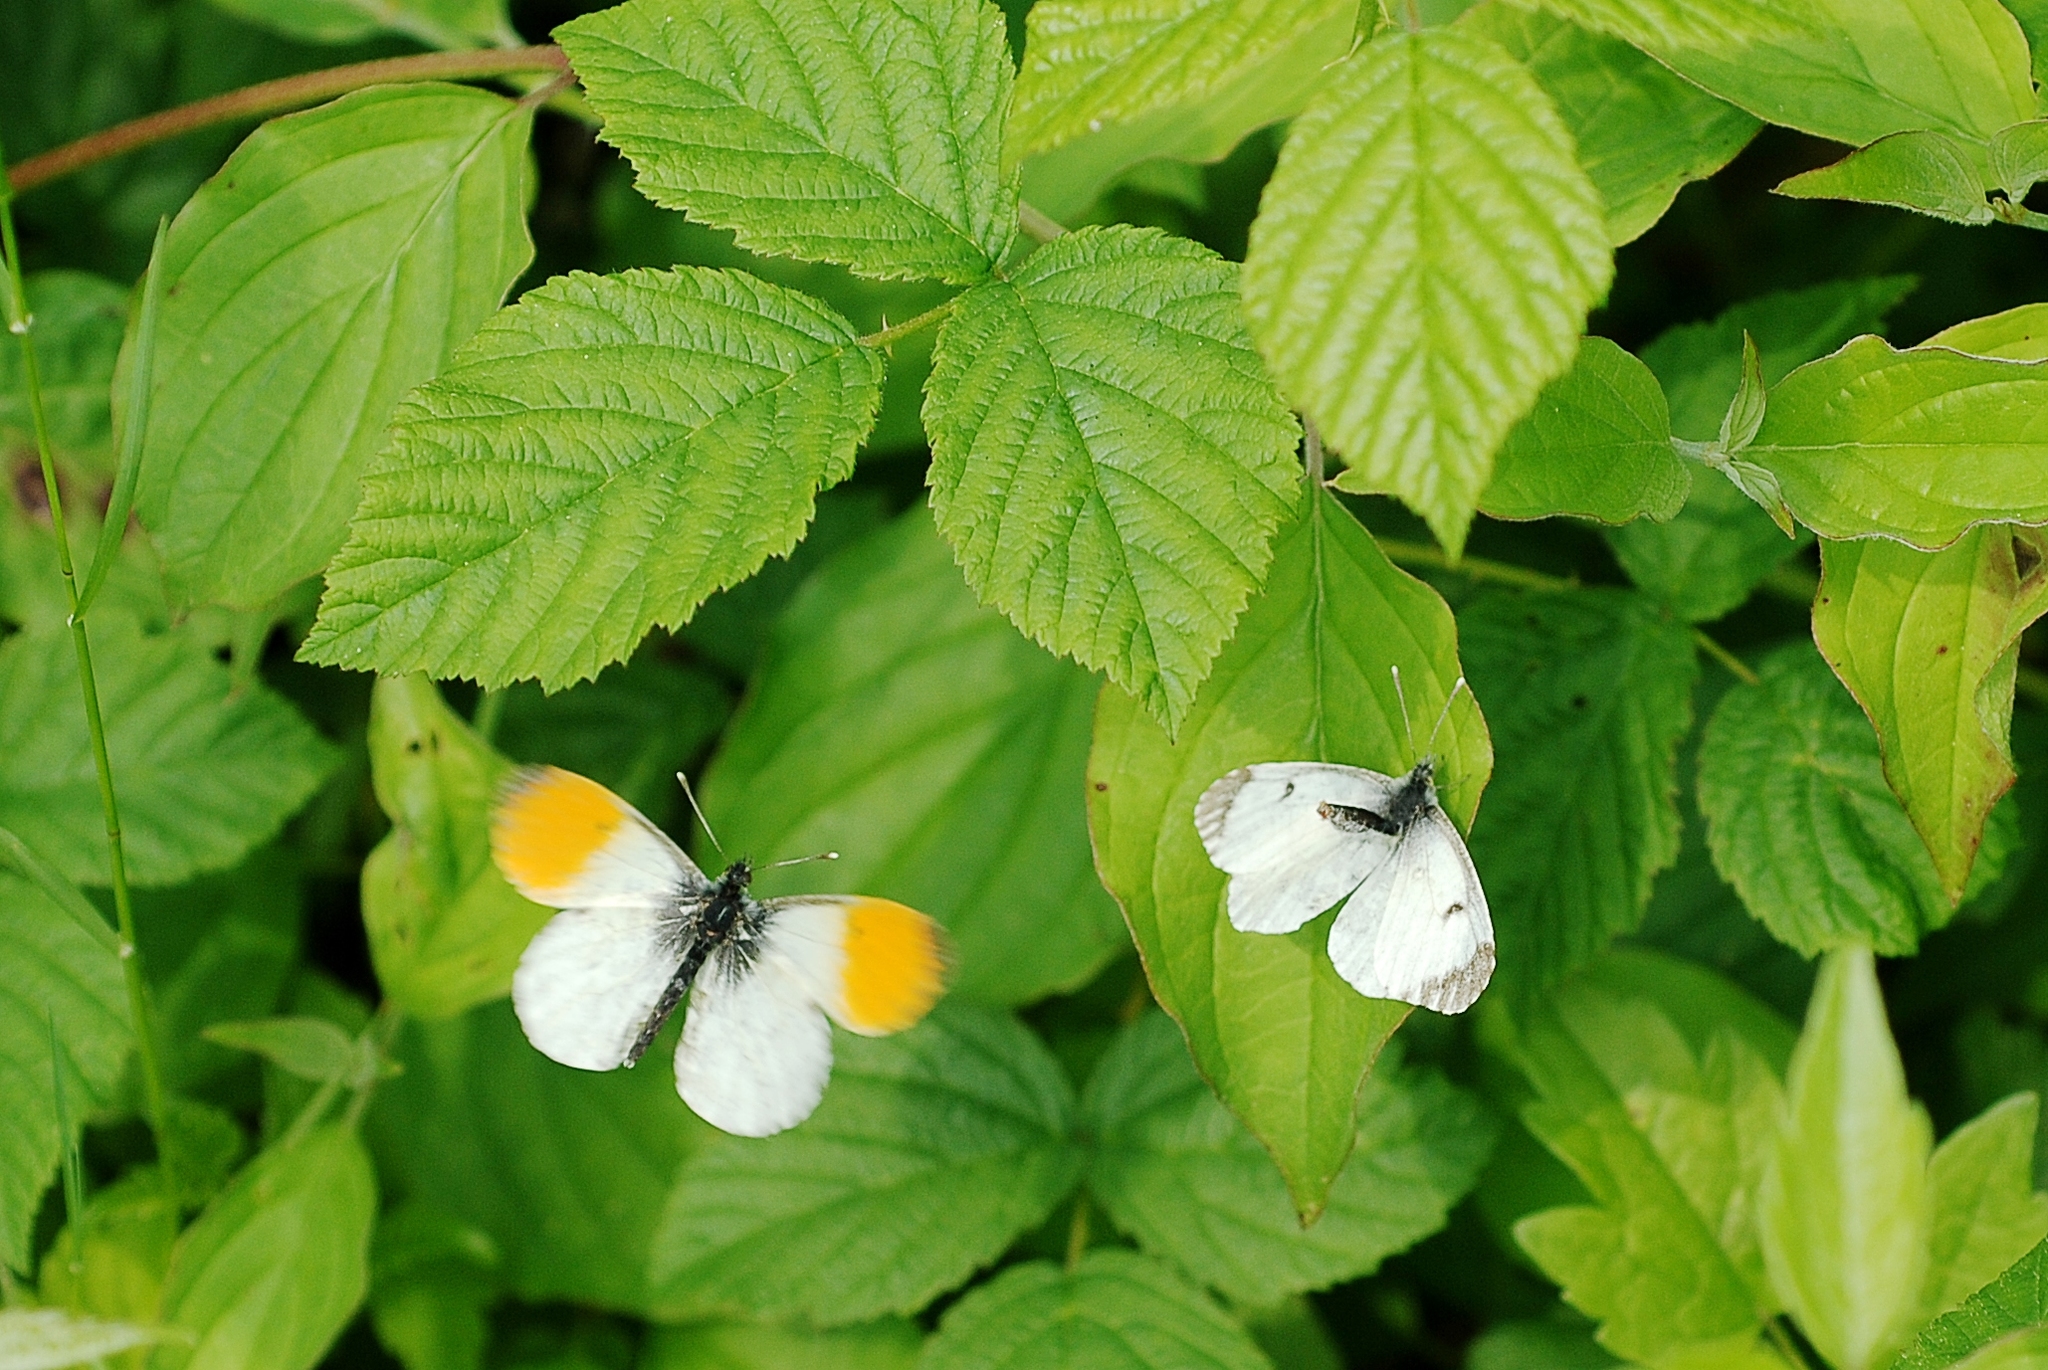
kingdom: Animalia
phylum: Arthropoda
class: Insecta
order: Lepidoptera
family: Pieridae
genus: Anthocharis
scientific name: Anthocharis cardamines
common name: Orange-tip
